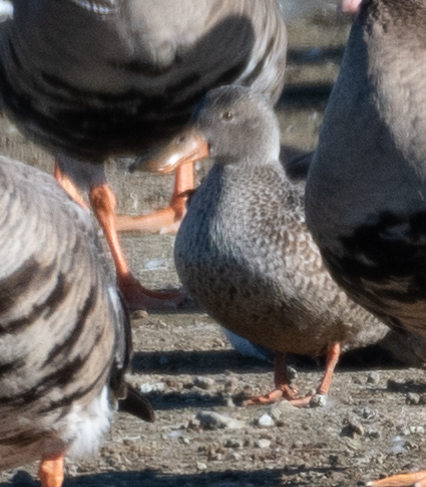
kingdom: Animalia
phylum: Chordata
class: Aves
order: Anseriformes
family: Anatidae
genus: Spatula
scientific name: Spatula clypeata
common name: Northern shoveler
